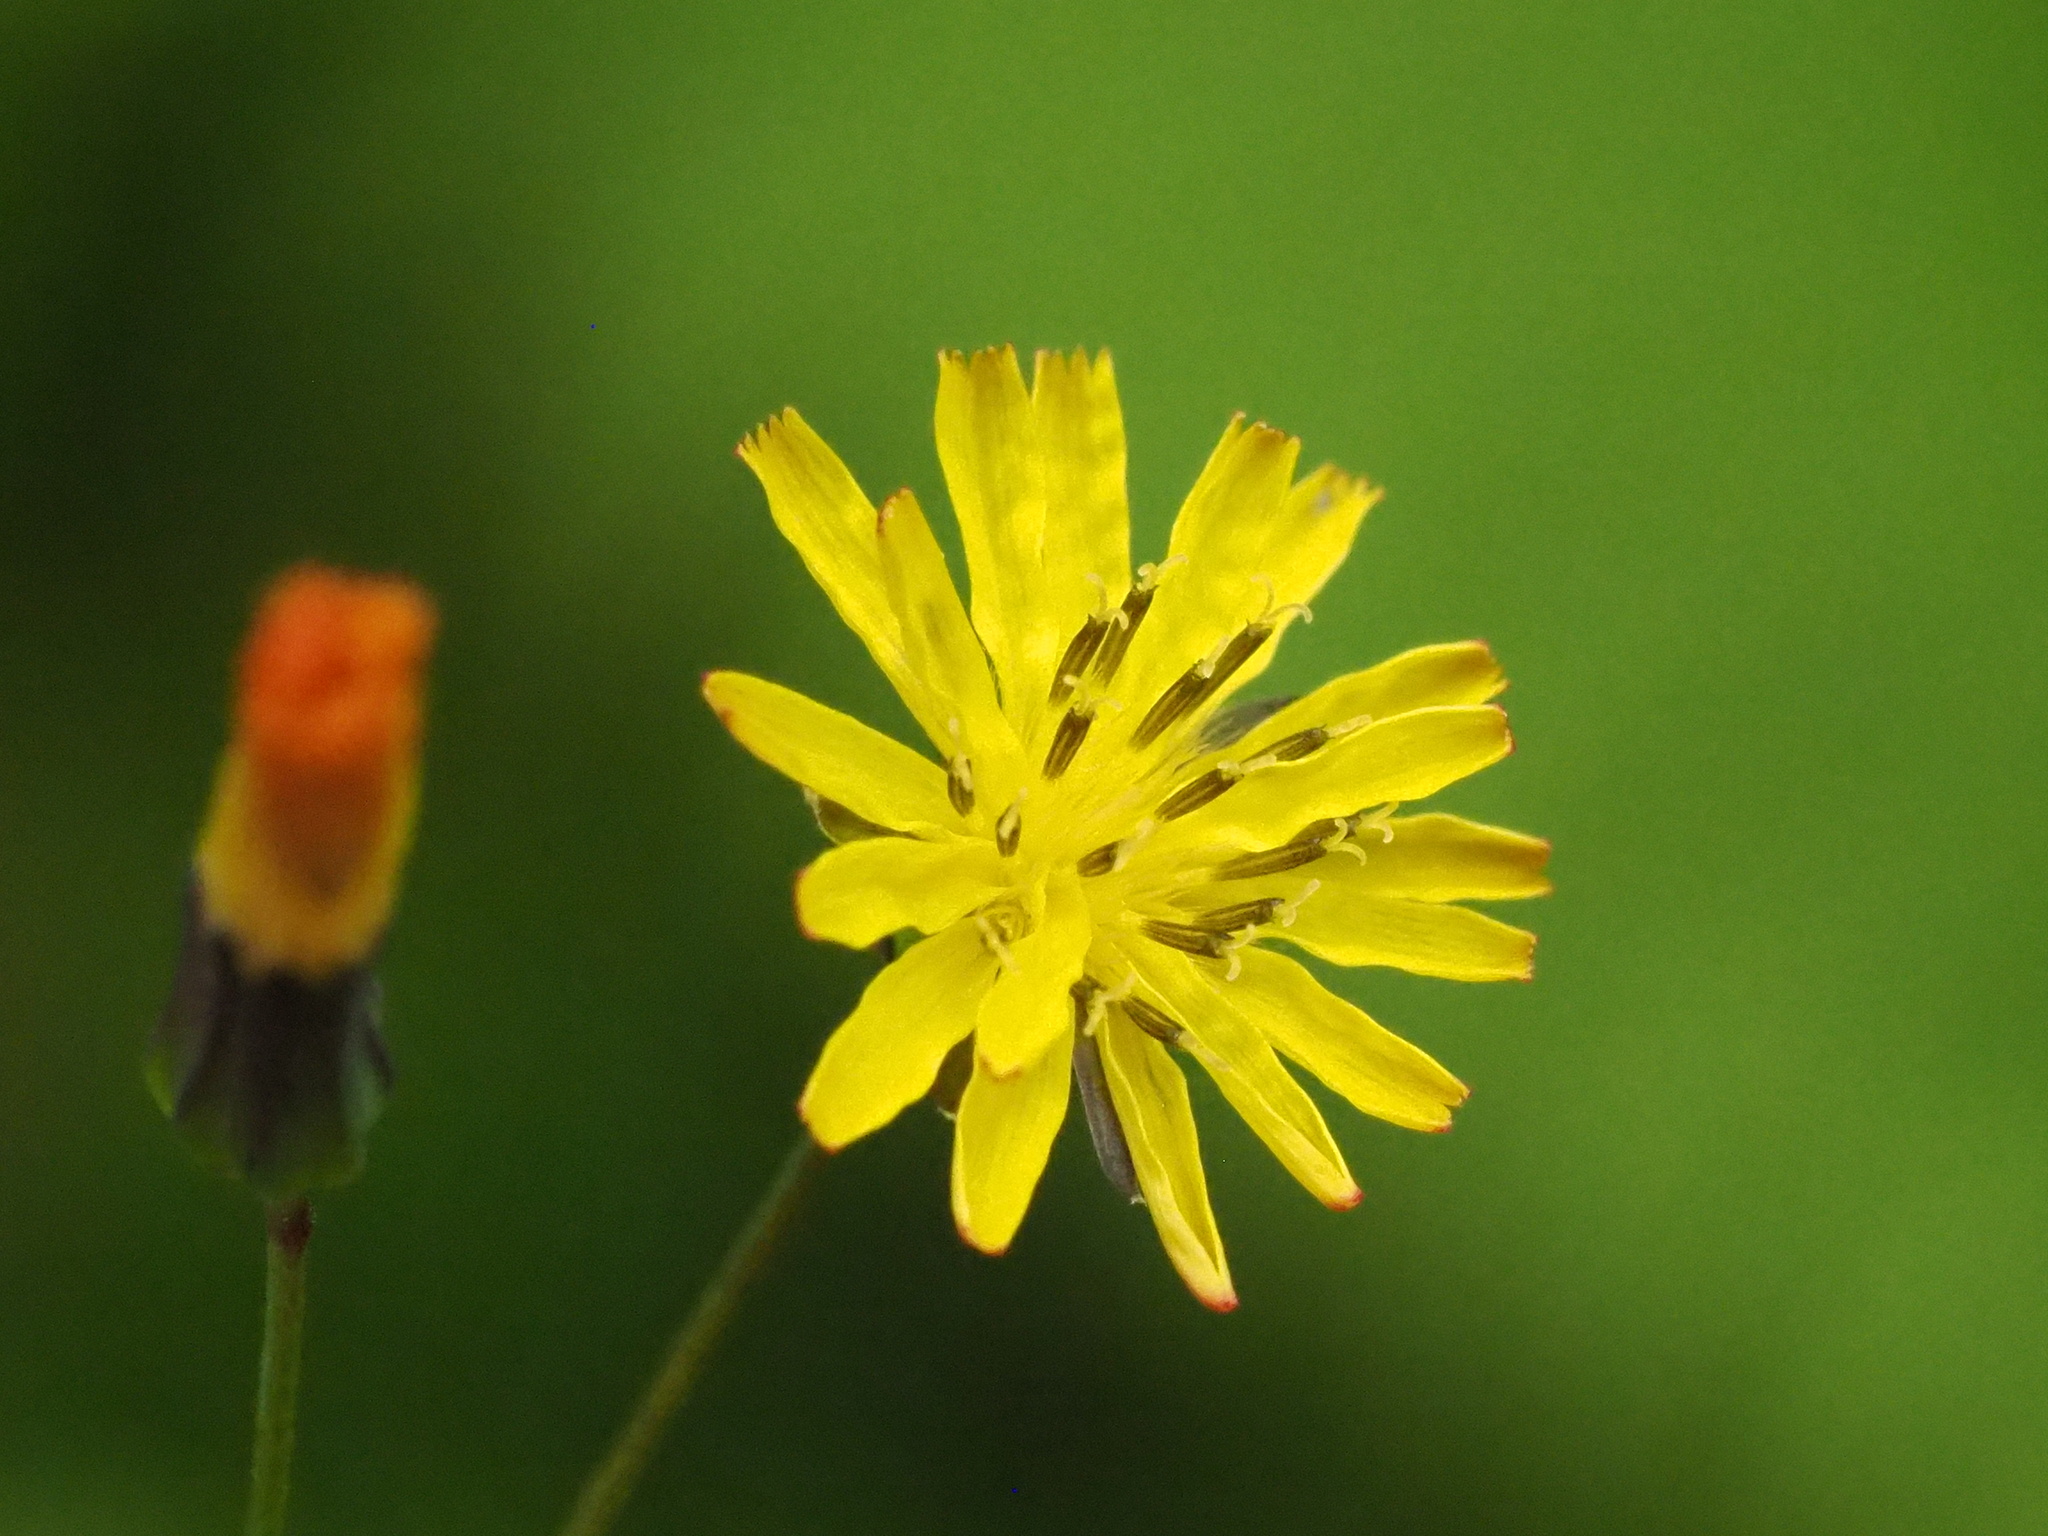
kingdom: Plantae
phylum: Tracheophyta
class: Magnoliopsida
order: Asterales
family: Asteraceae
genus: Youngia
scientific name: Youngia japonica
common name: Oriental false hawksbeard
